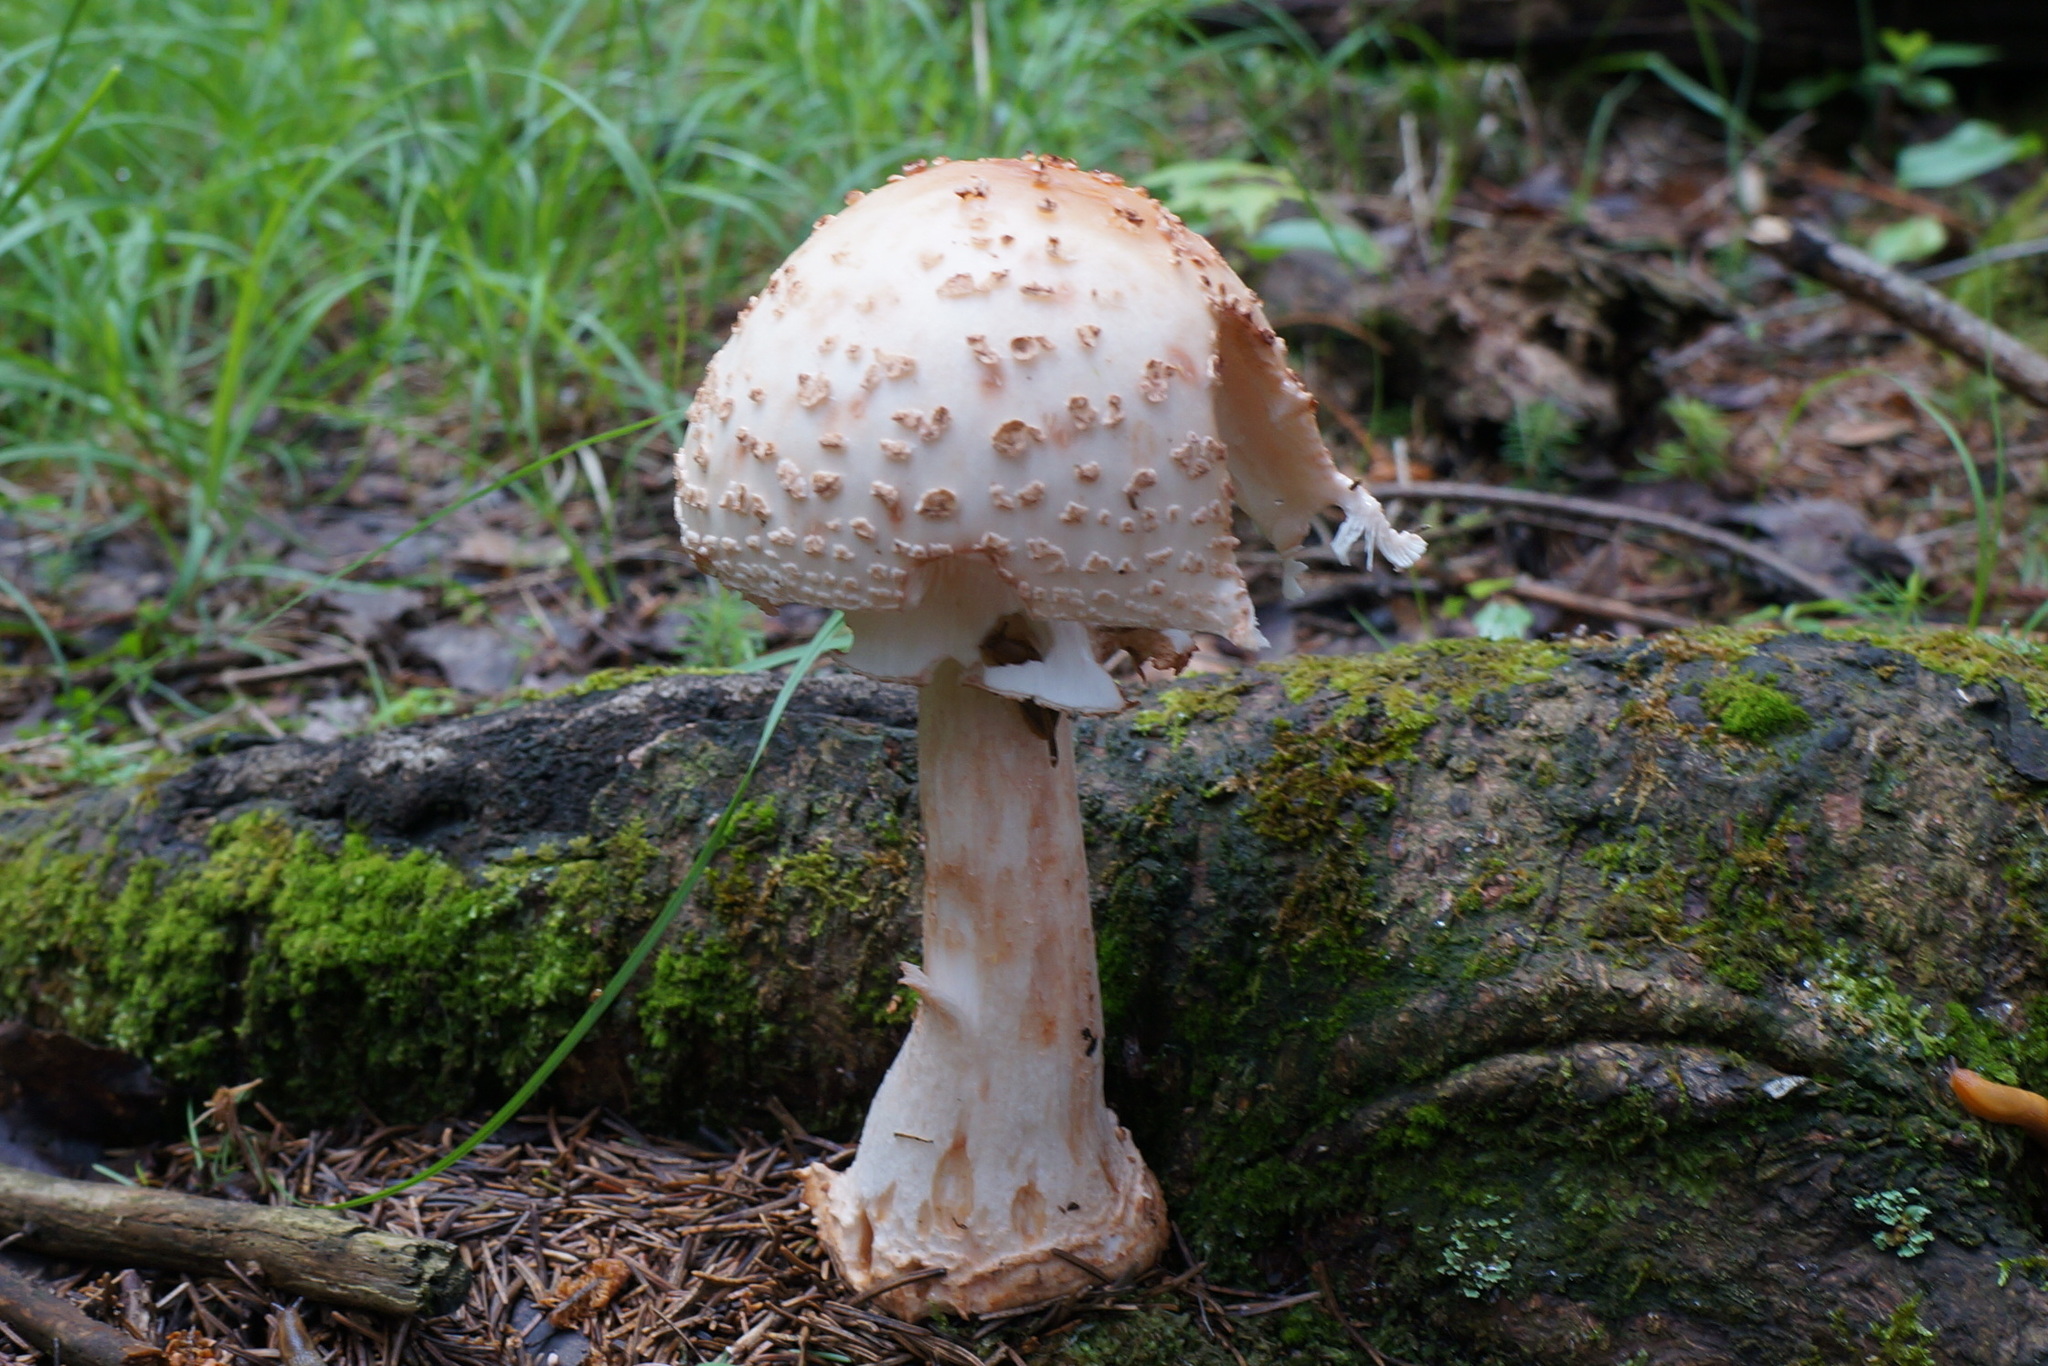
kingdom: Fungi
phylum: Basidiomycota
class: Agaricomycetes
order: Agaricales
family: Amanitaceae
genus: Amanita
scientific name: Amanita rubescens
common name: Blusher
